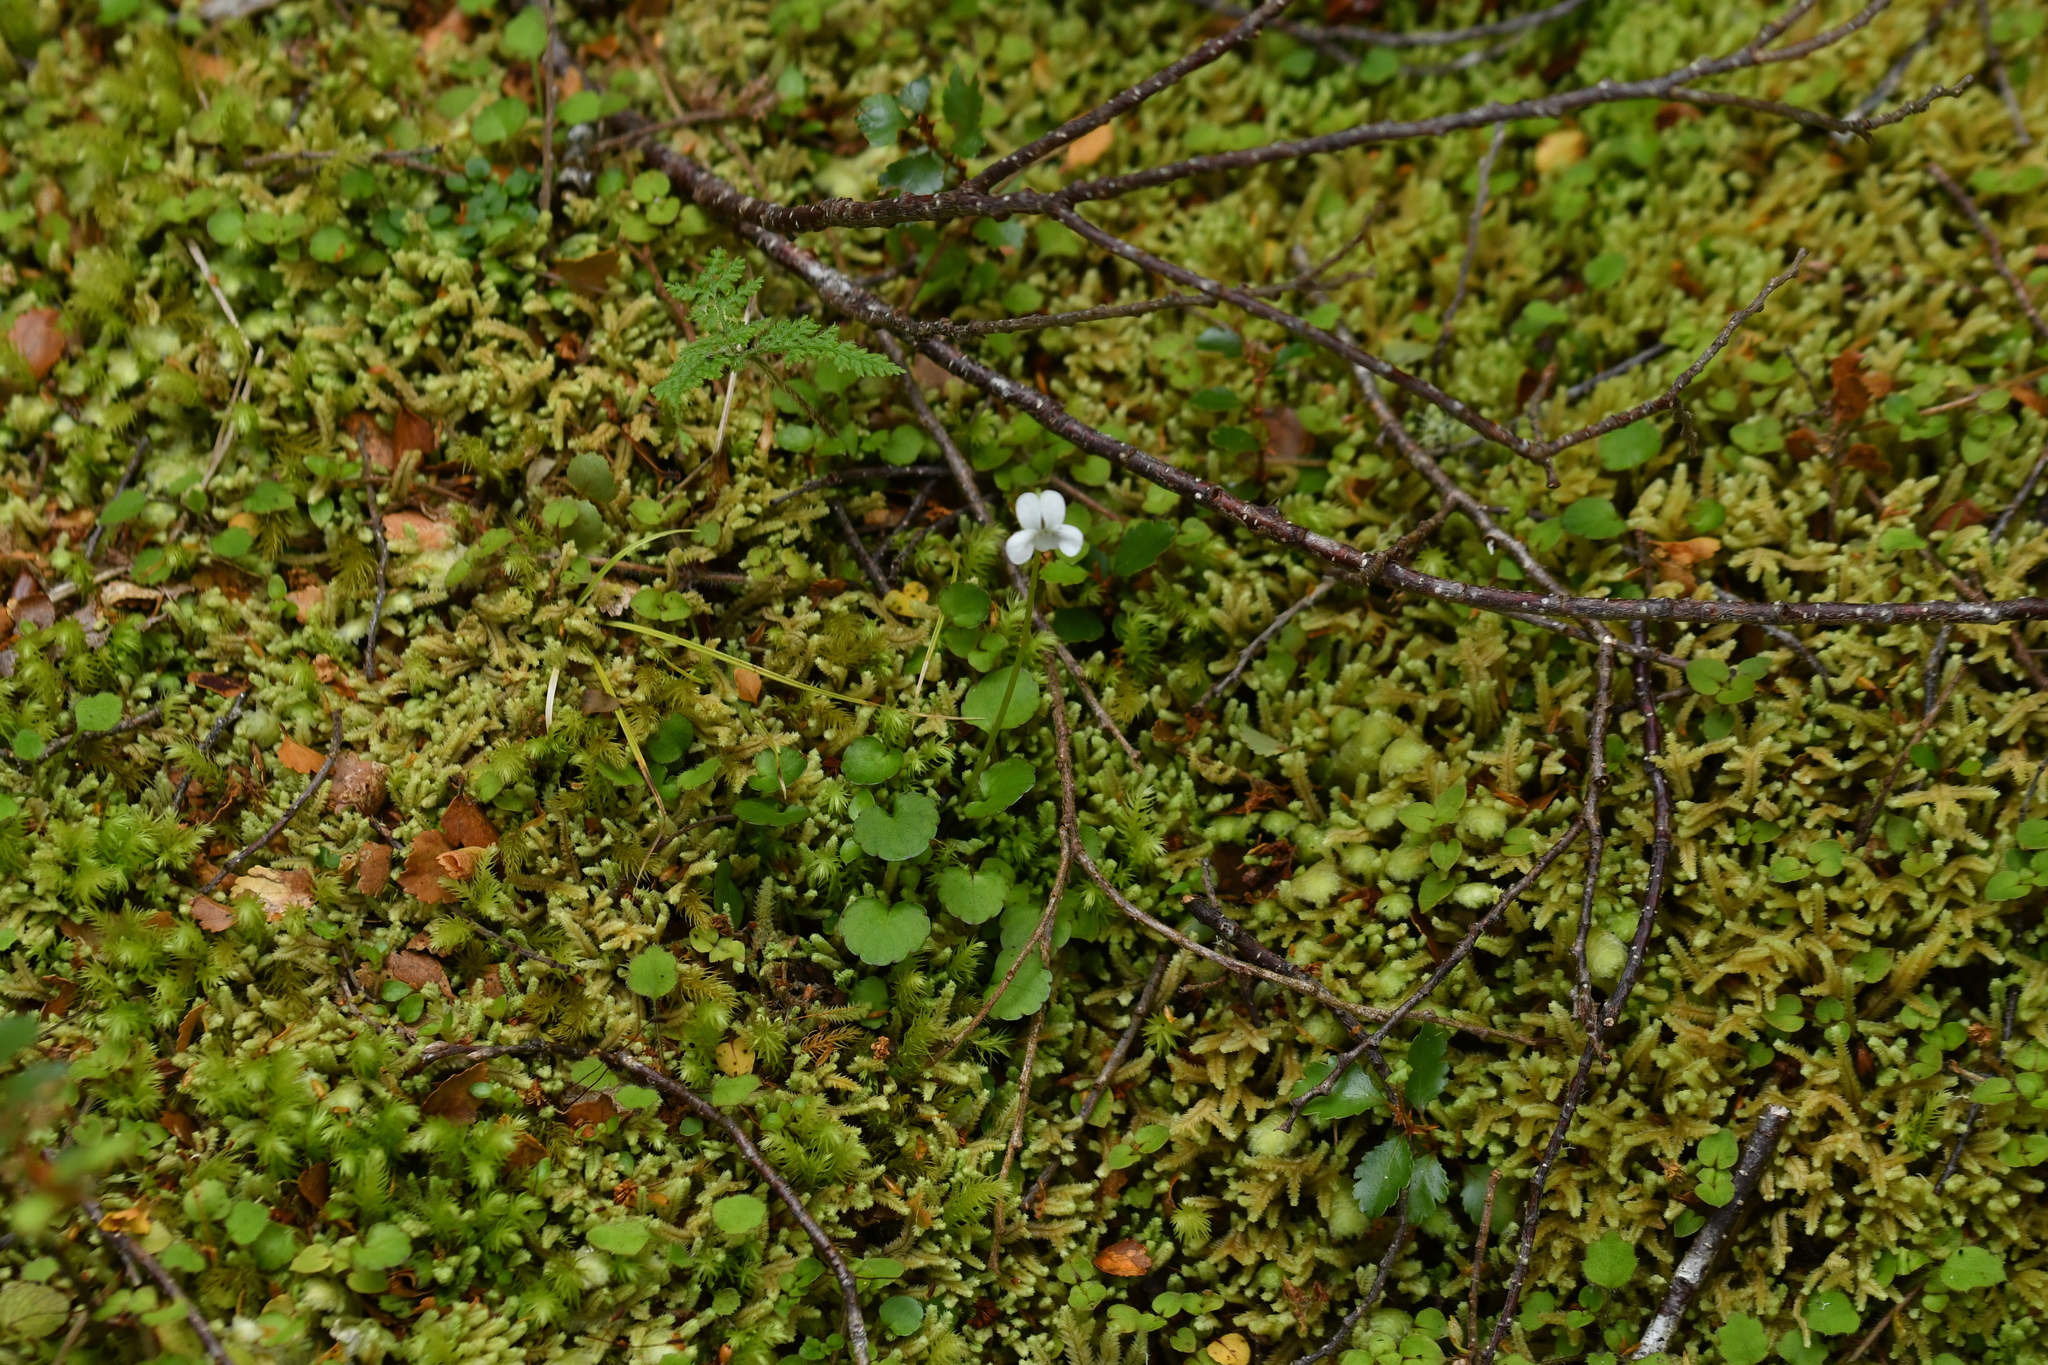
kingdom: Plantae
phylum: Tracheophyta
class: Magnoliopsida
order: Malpighiales
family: Violaceae
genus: Viola
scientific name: Viola filicaulis
